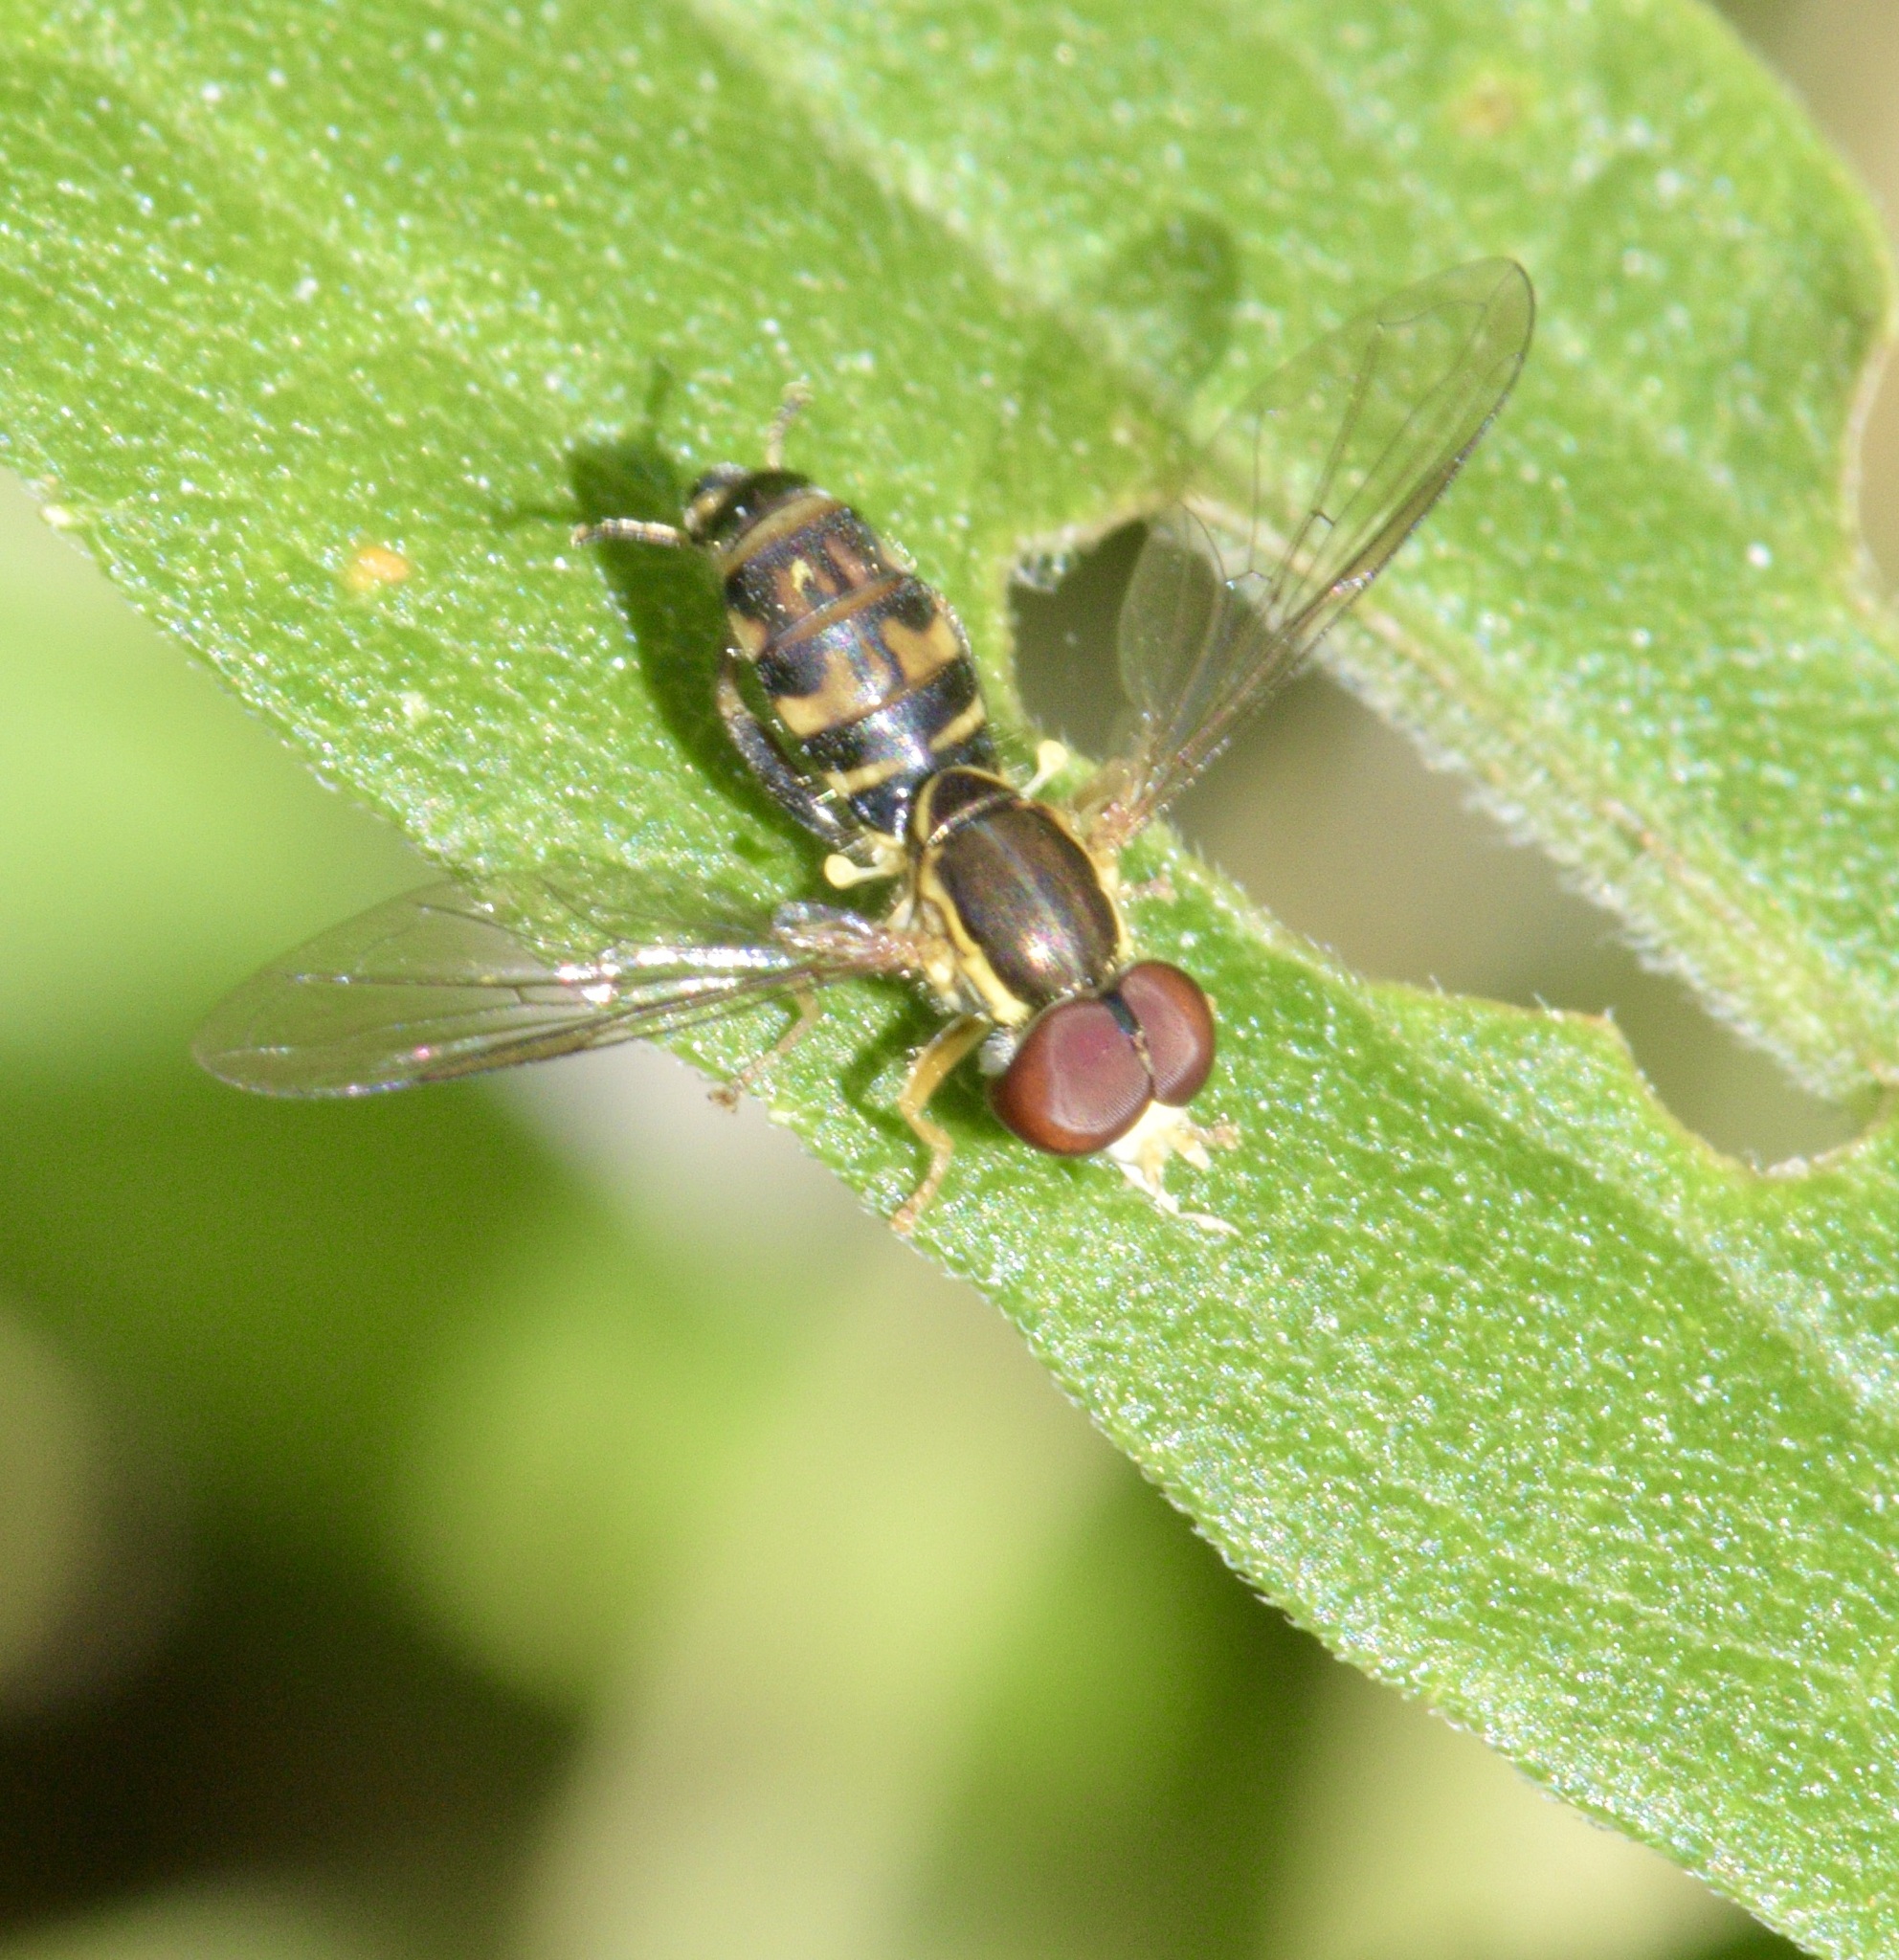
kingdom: Animalia
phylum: Arthropoda
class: Insecta
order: Diptera
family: Syrphidae
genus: Toxomerus
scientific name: Toxomerus geminatus
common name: Eastern calligrapher
